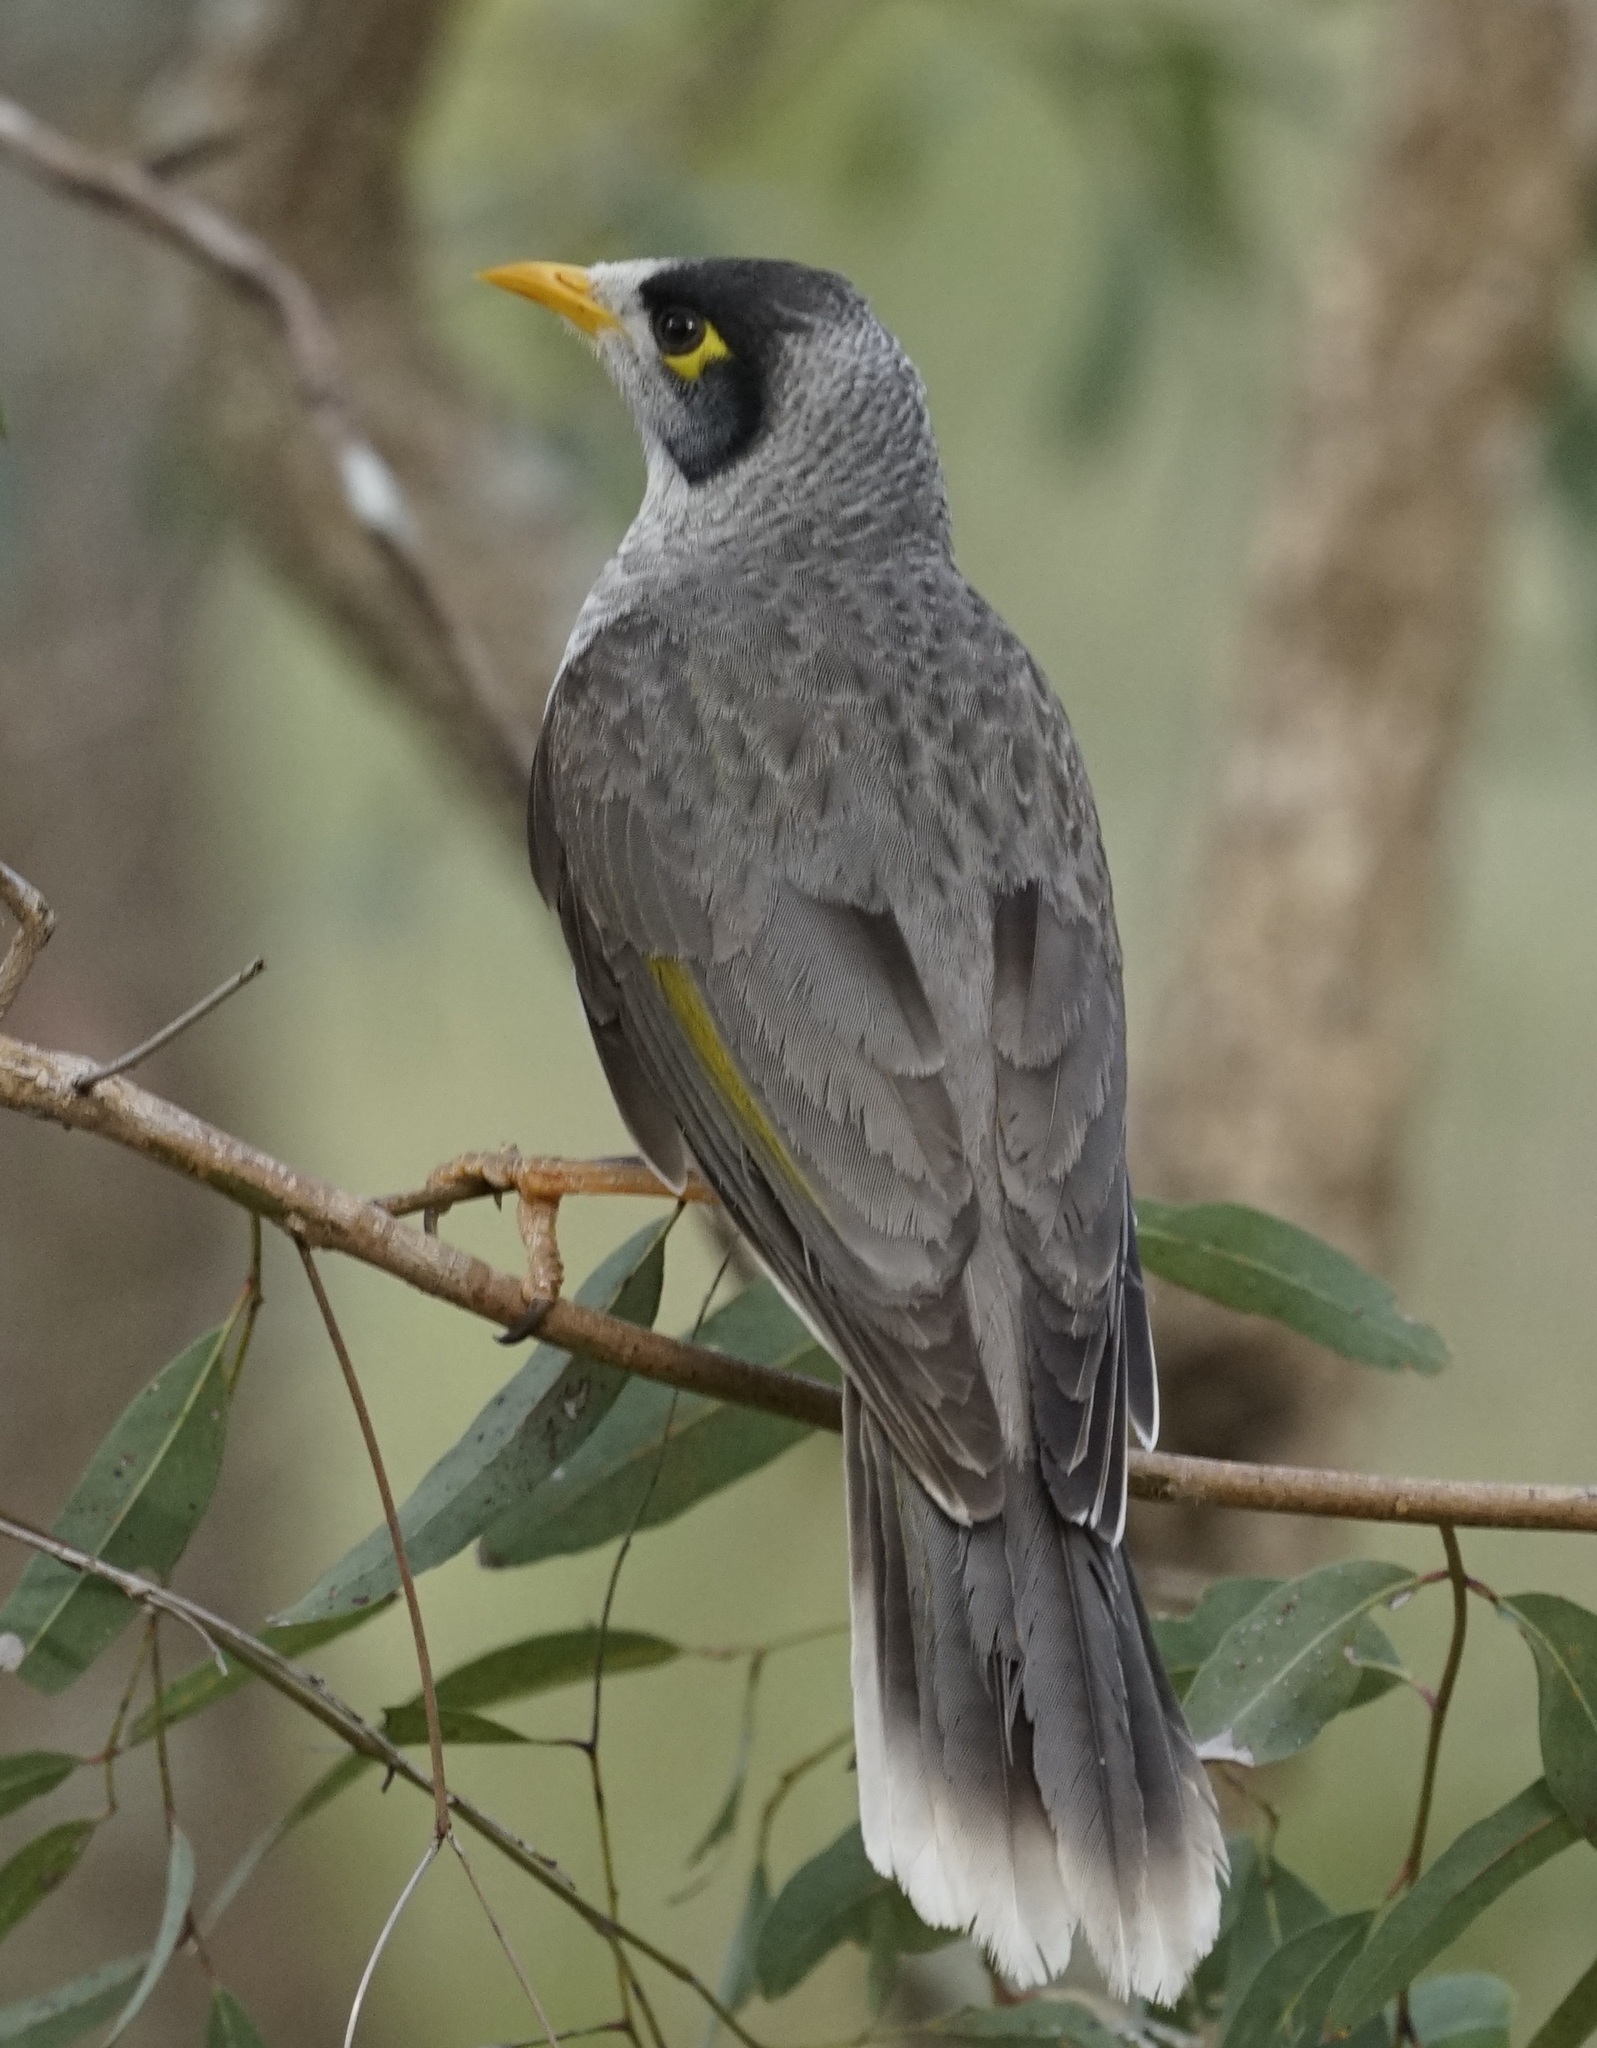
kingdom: Animalia
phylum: Chordata
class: Aves
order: Passeriformes
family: Meliphagidae
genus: Manorina
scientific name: Manorina melanocephala
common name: Noisy miner
